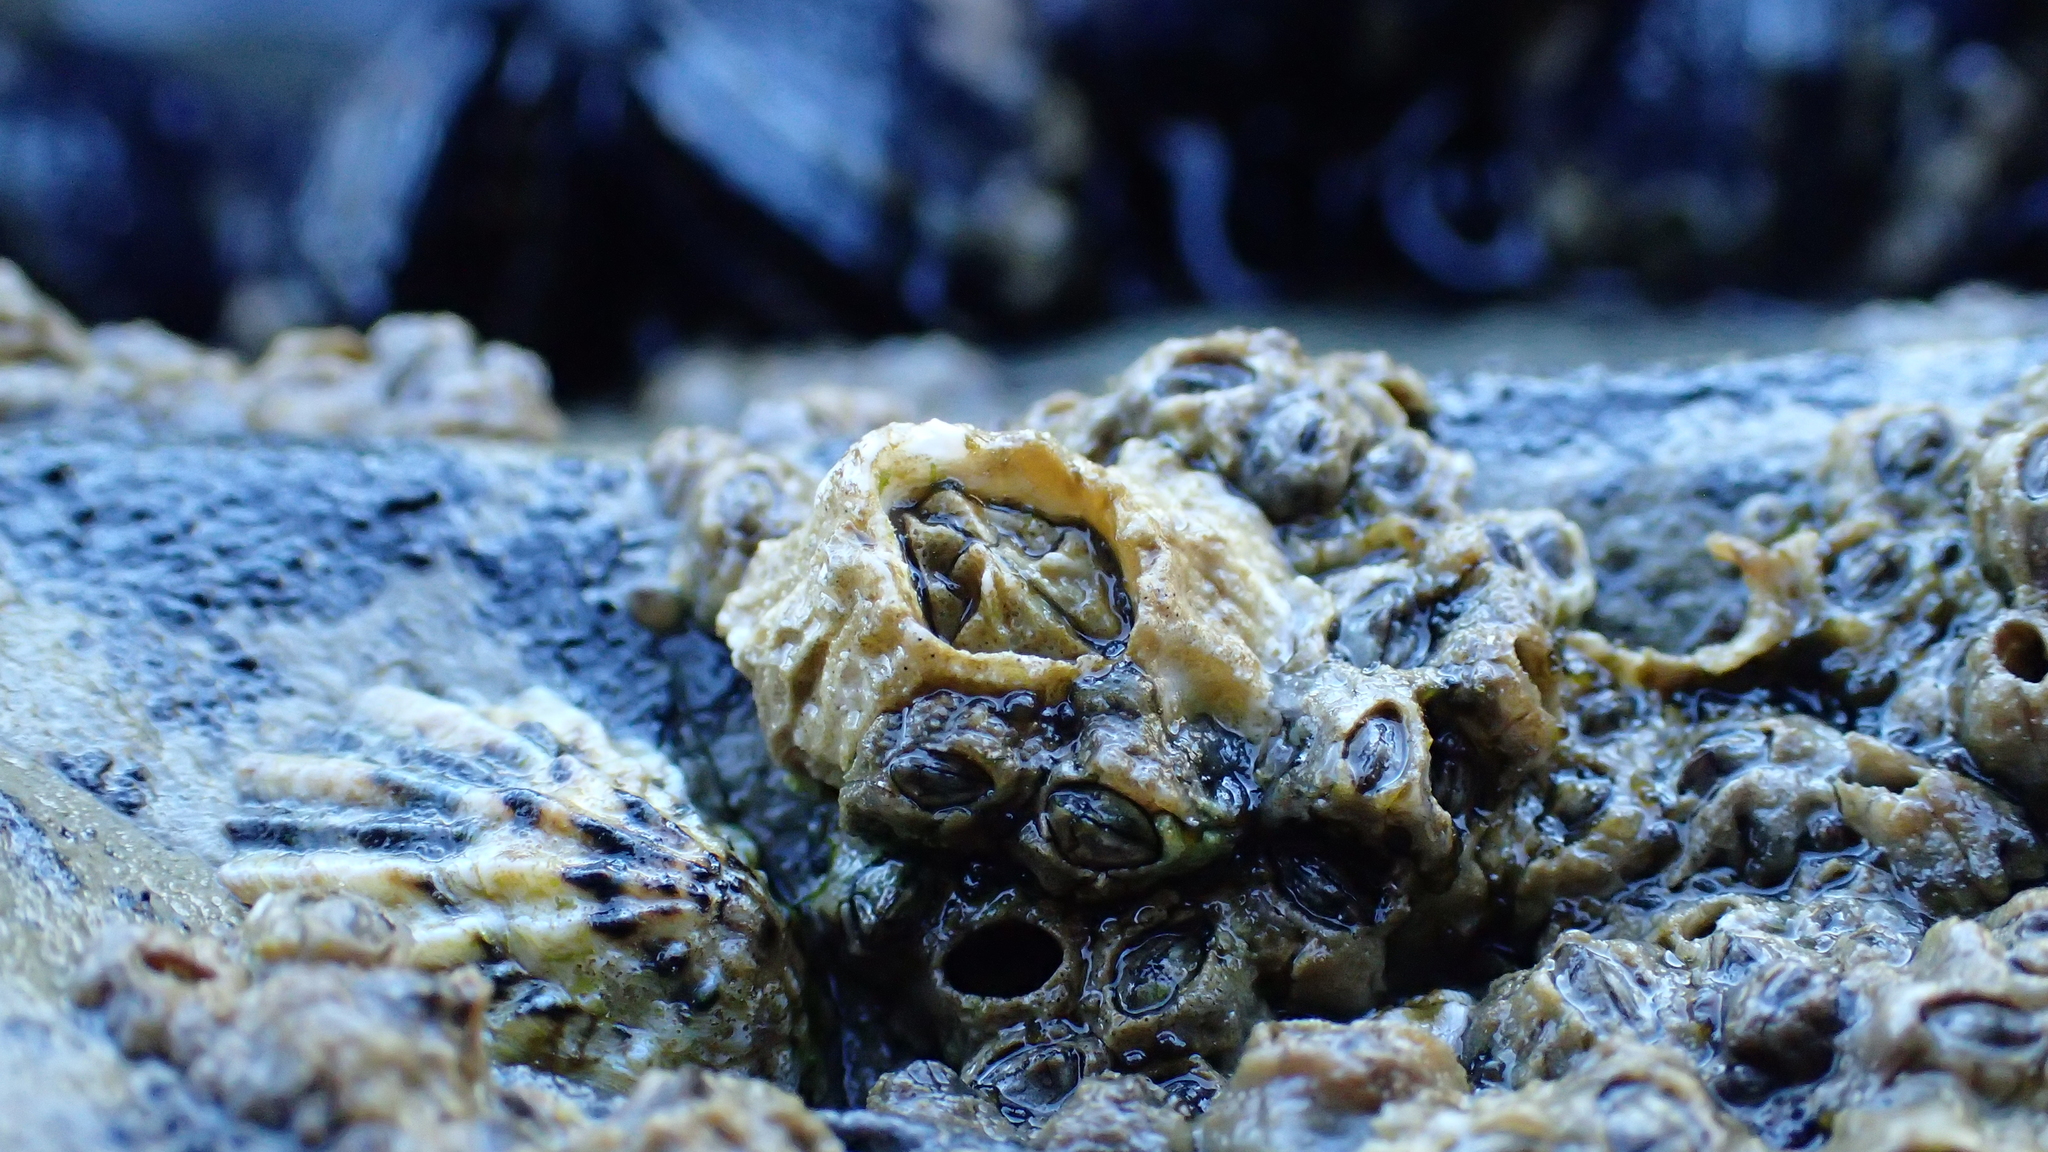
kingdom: Animalia
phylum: Arthropoda
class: Maxillopoda
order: Sessilia
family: Balanidae
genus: Balanus
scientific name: Balanus glandula
